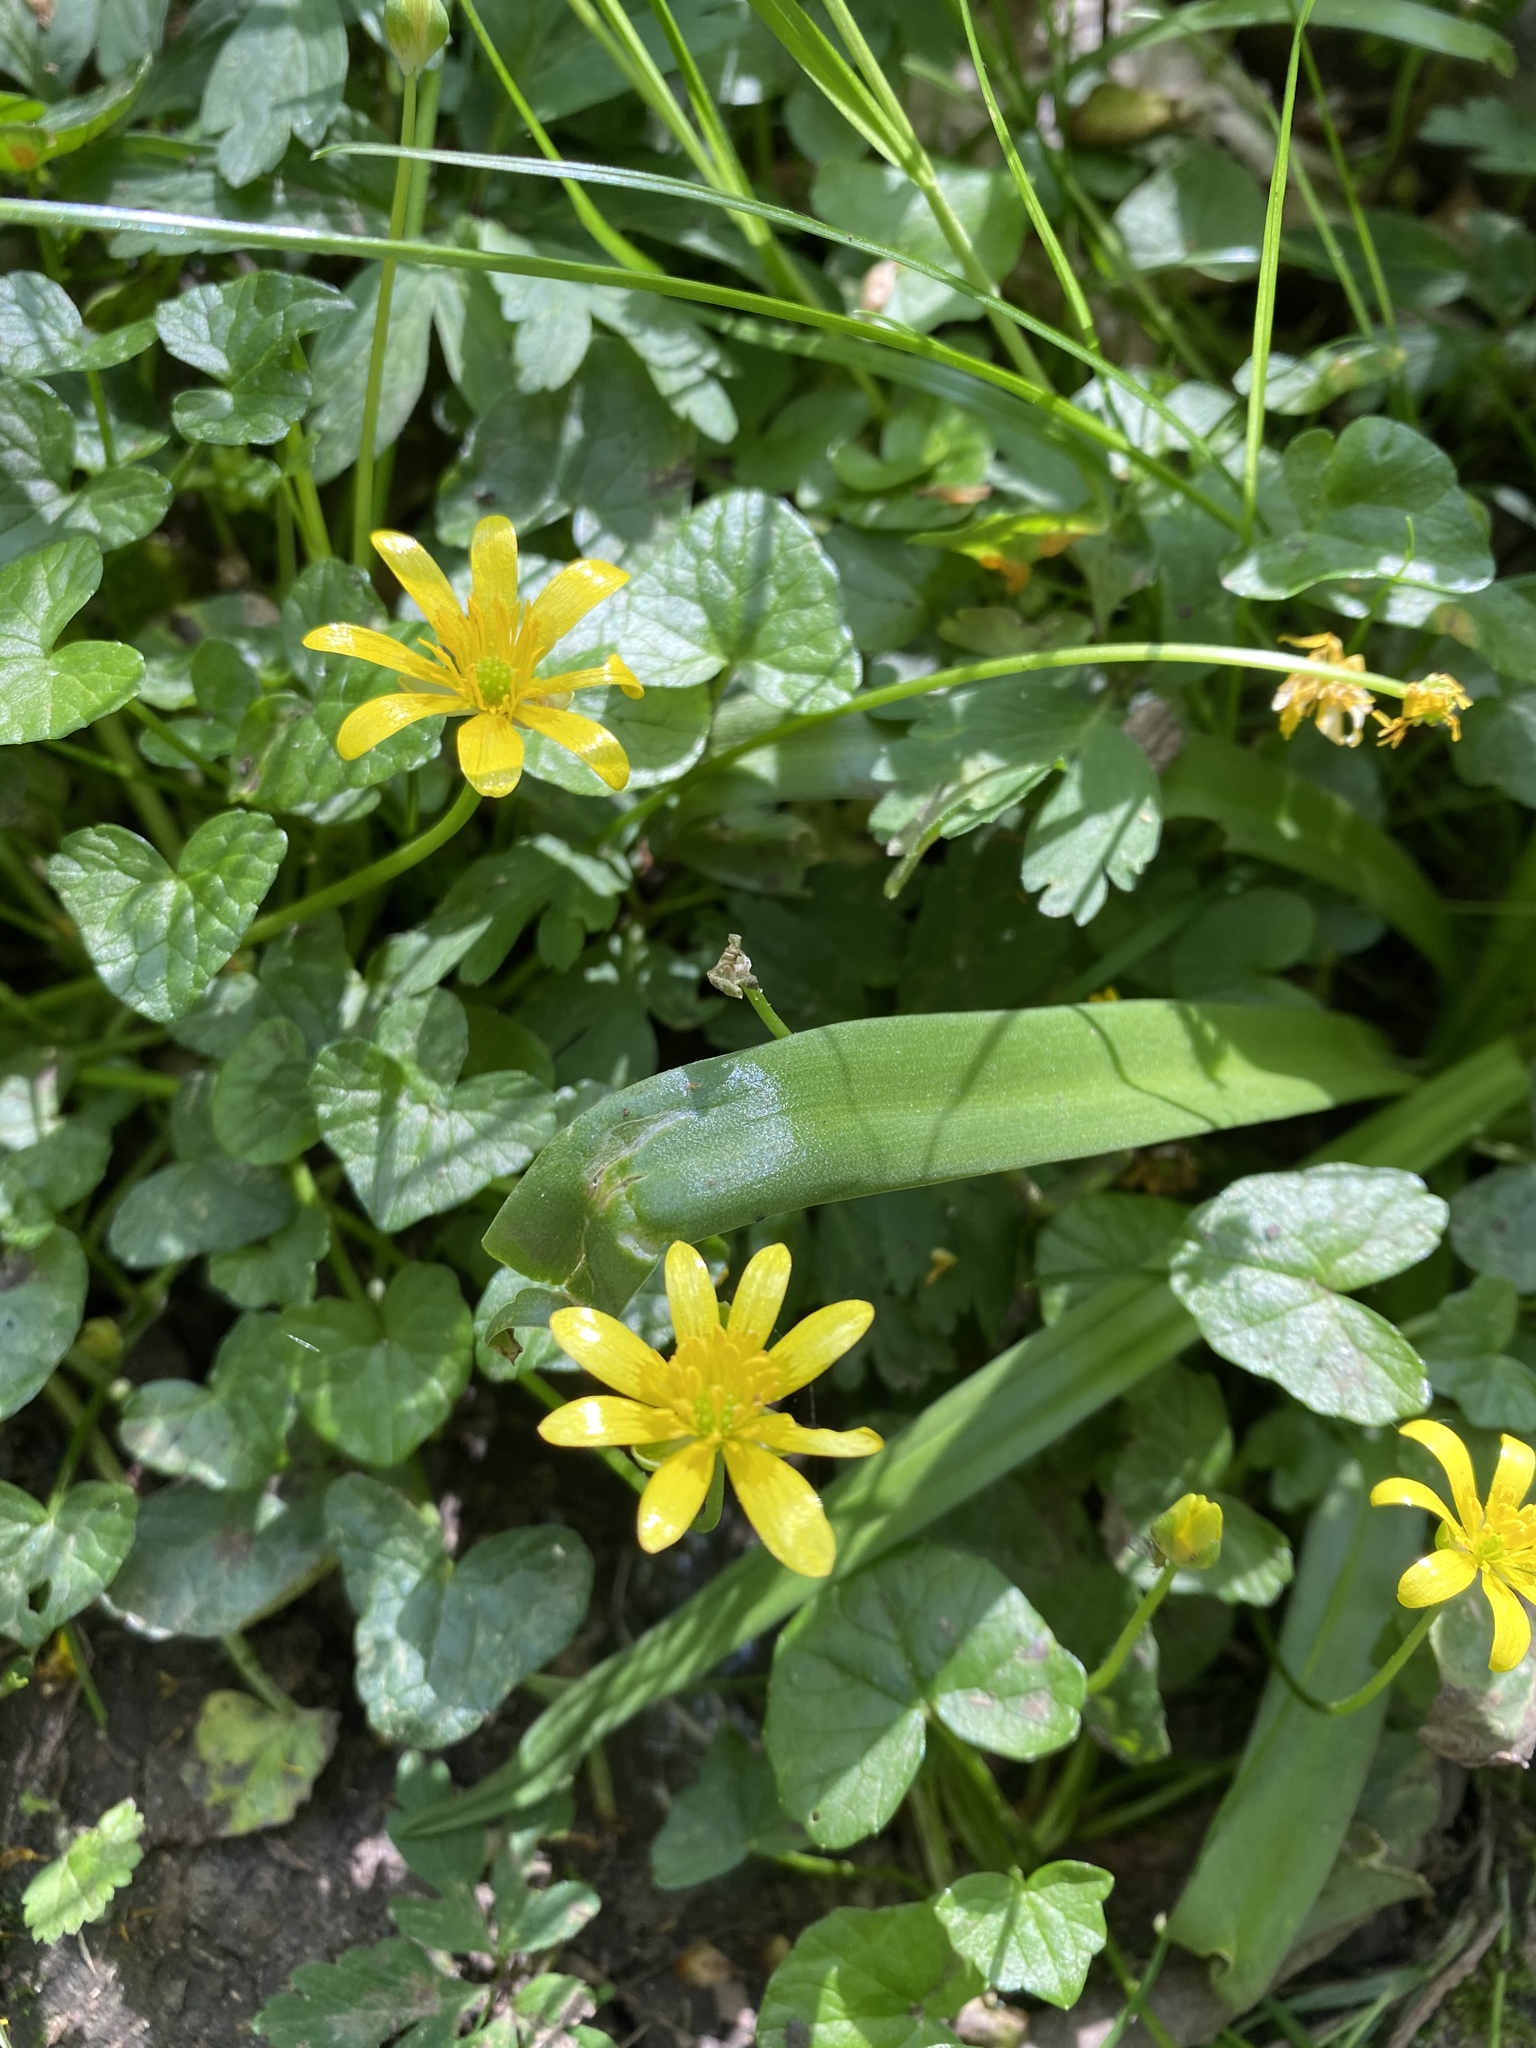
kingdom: Plantae
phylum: Tracheophyta
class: Magnoliopsida
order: Ranunculales
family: Ranunculaceae
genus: Ficaria
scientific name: Ficaria verna
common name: Lesser celandine
